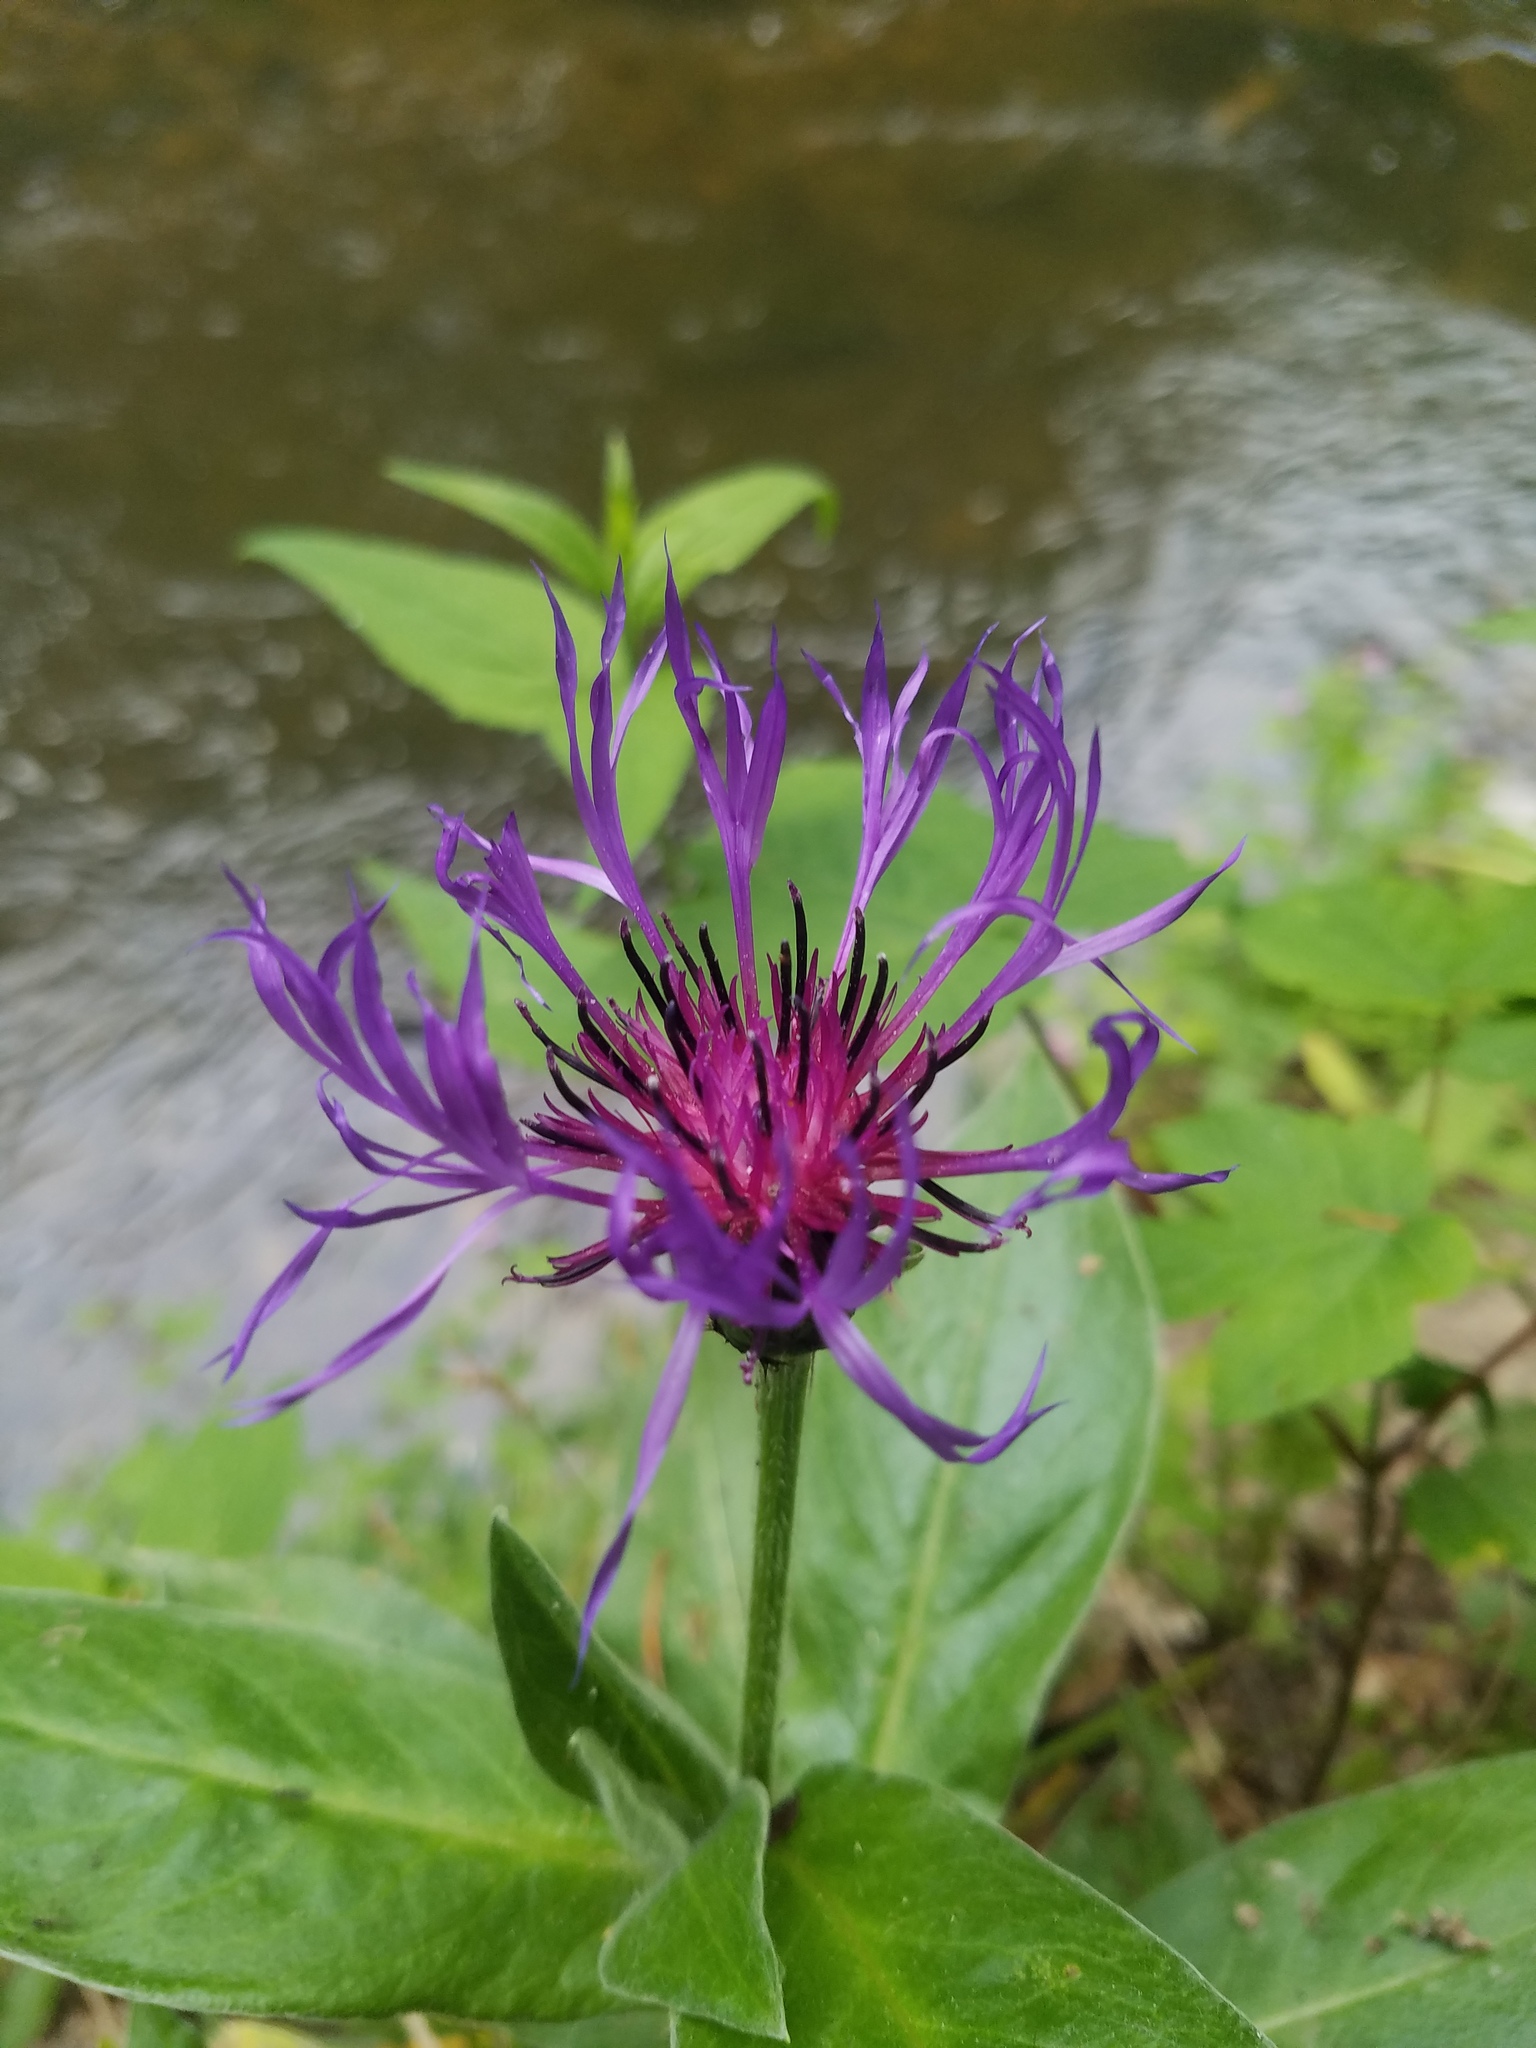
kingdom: Plantae
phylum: Tracheophyta
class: Magnoliopsida
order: Asterales
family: Asteraceae
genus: Centaurea
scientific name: Centaurea montana
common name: Perennial cornflower
